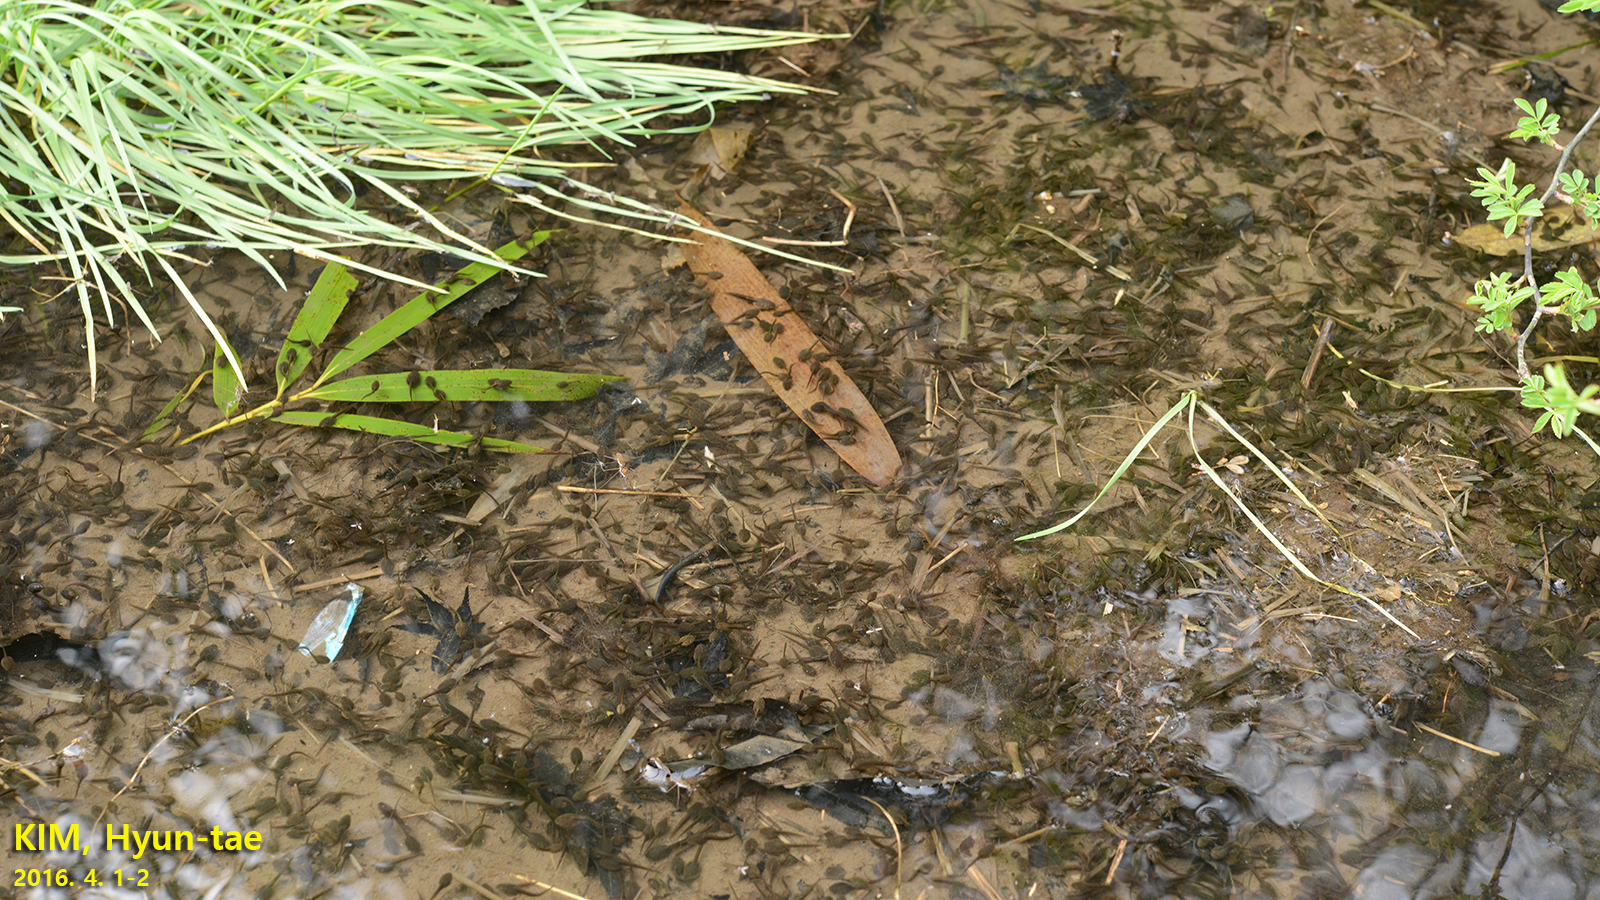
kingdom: Animalia
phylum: Chordata
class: Amphibia
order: Anura
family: Ranidae
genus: Rana
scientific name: Rana uenoi
